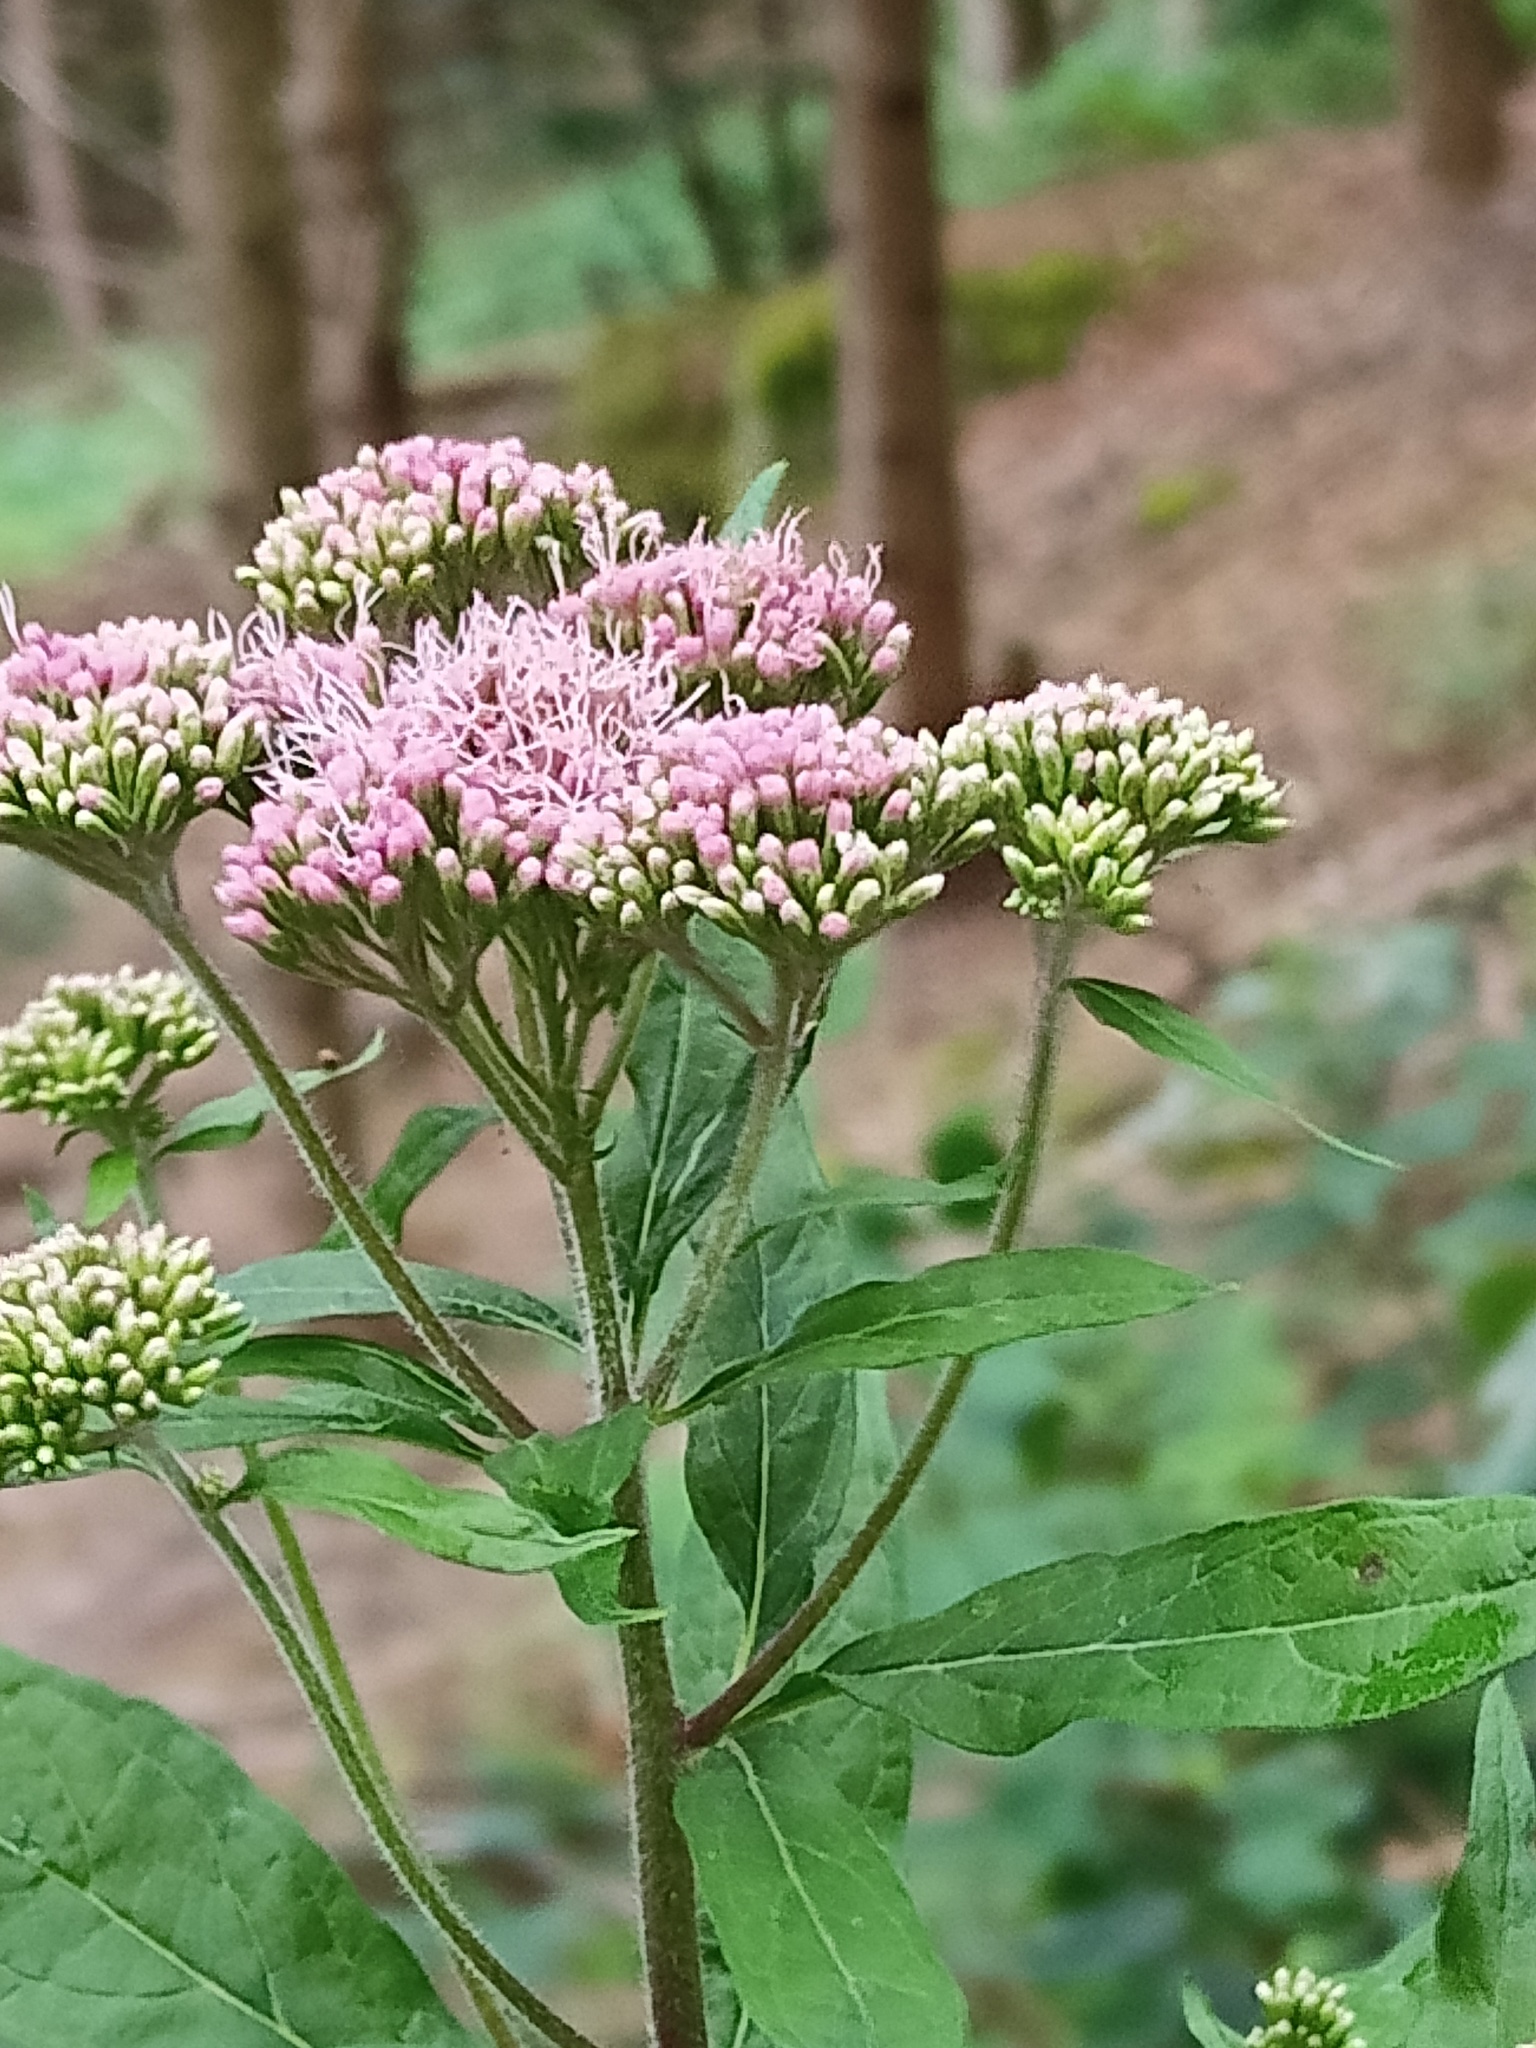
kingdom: Plantae
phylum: Tracheophyta
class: Magnoliopsida
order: Asterales
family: Asteraceae
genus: Eupatorium
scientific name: Eupatorium cannabinum
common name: Hemp-agrimony
